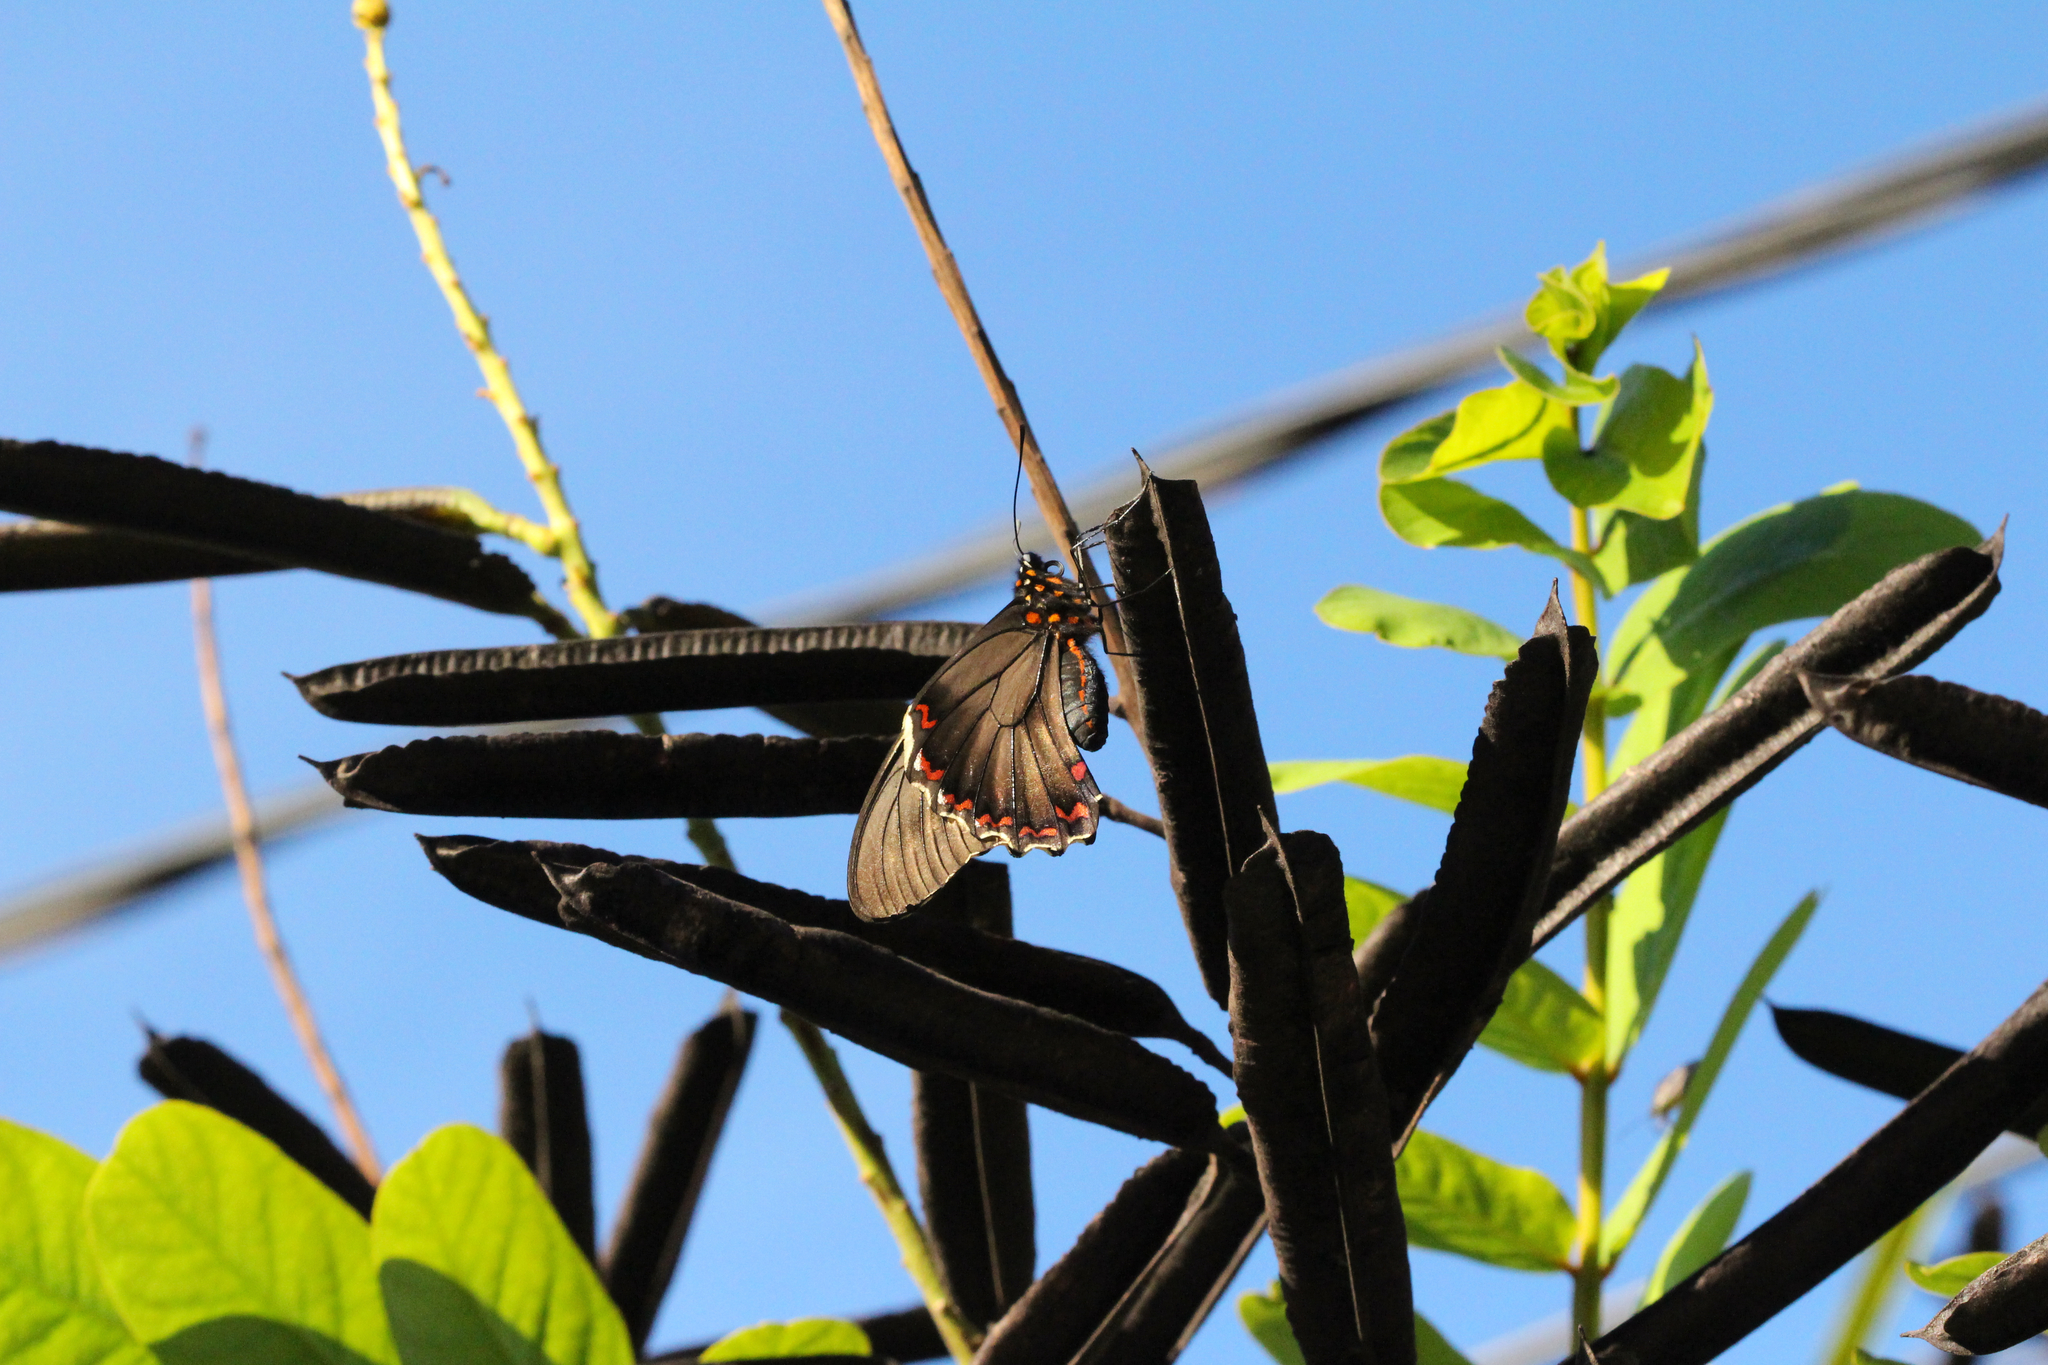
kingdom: Animalia
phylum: Arthropoda
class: Insecta
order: Lepidoptera
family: Papilionidae
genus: Battus
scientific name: Battus polydamas
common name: Polydamas swallowtail
